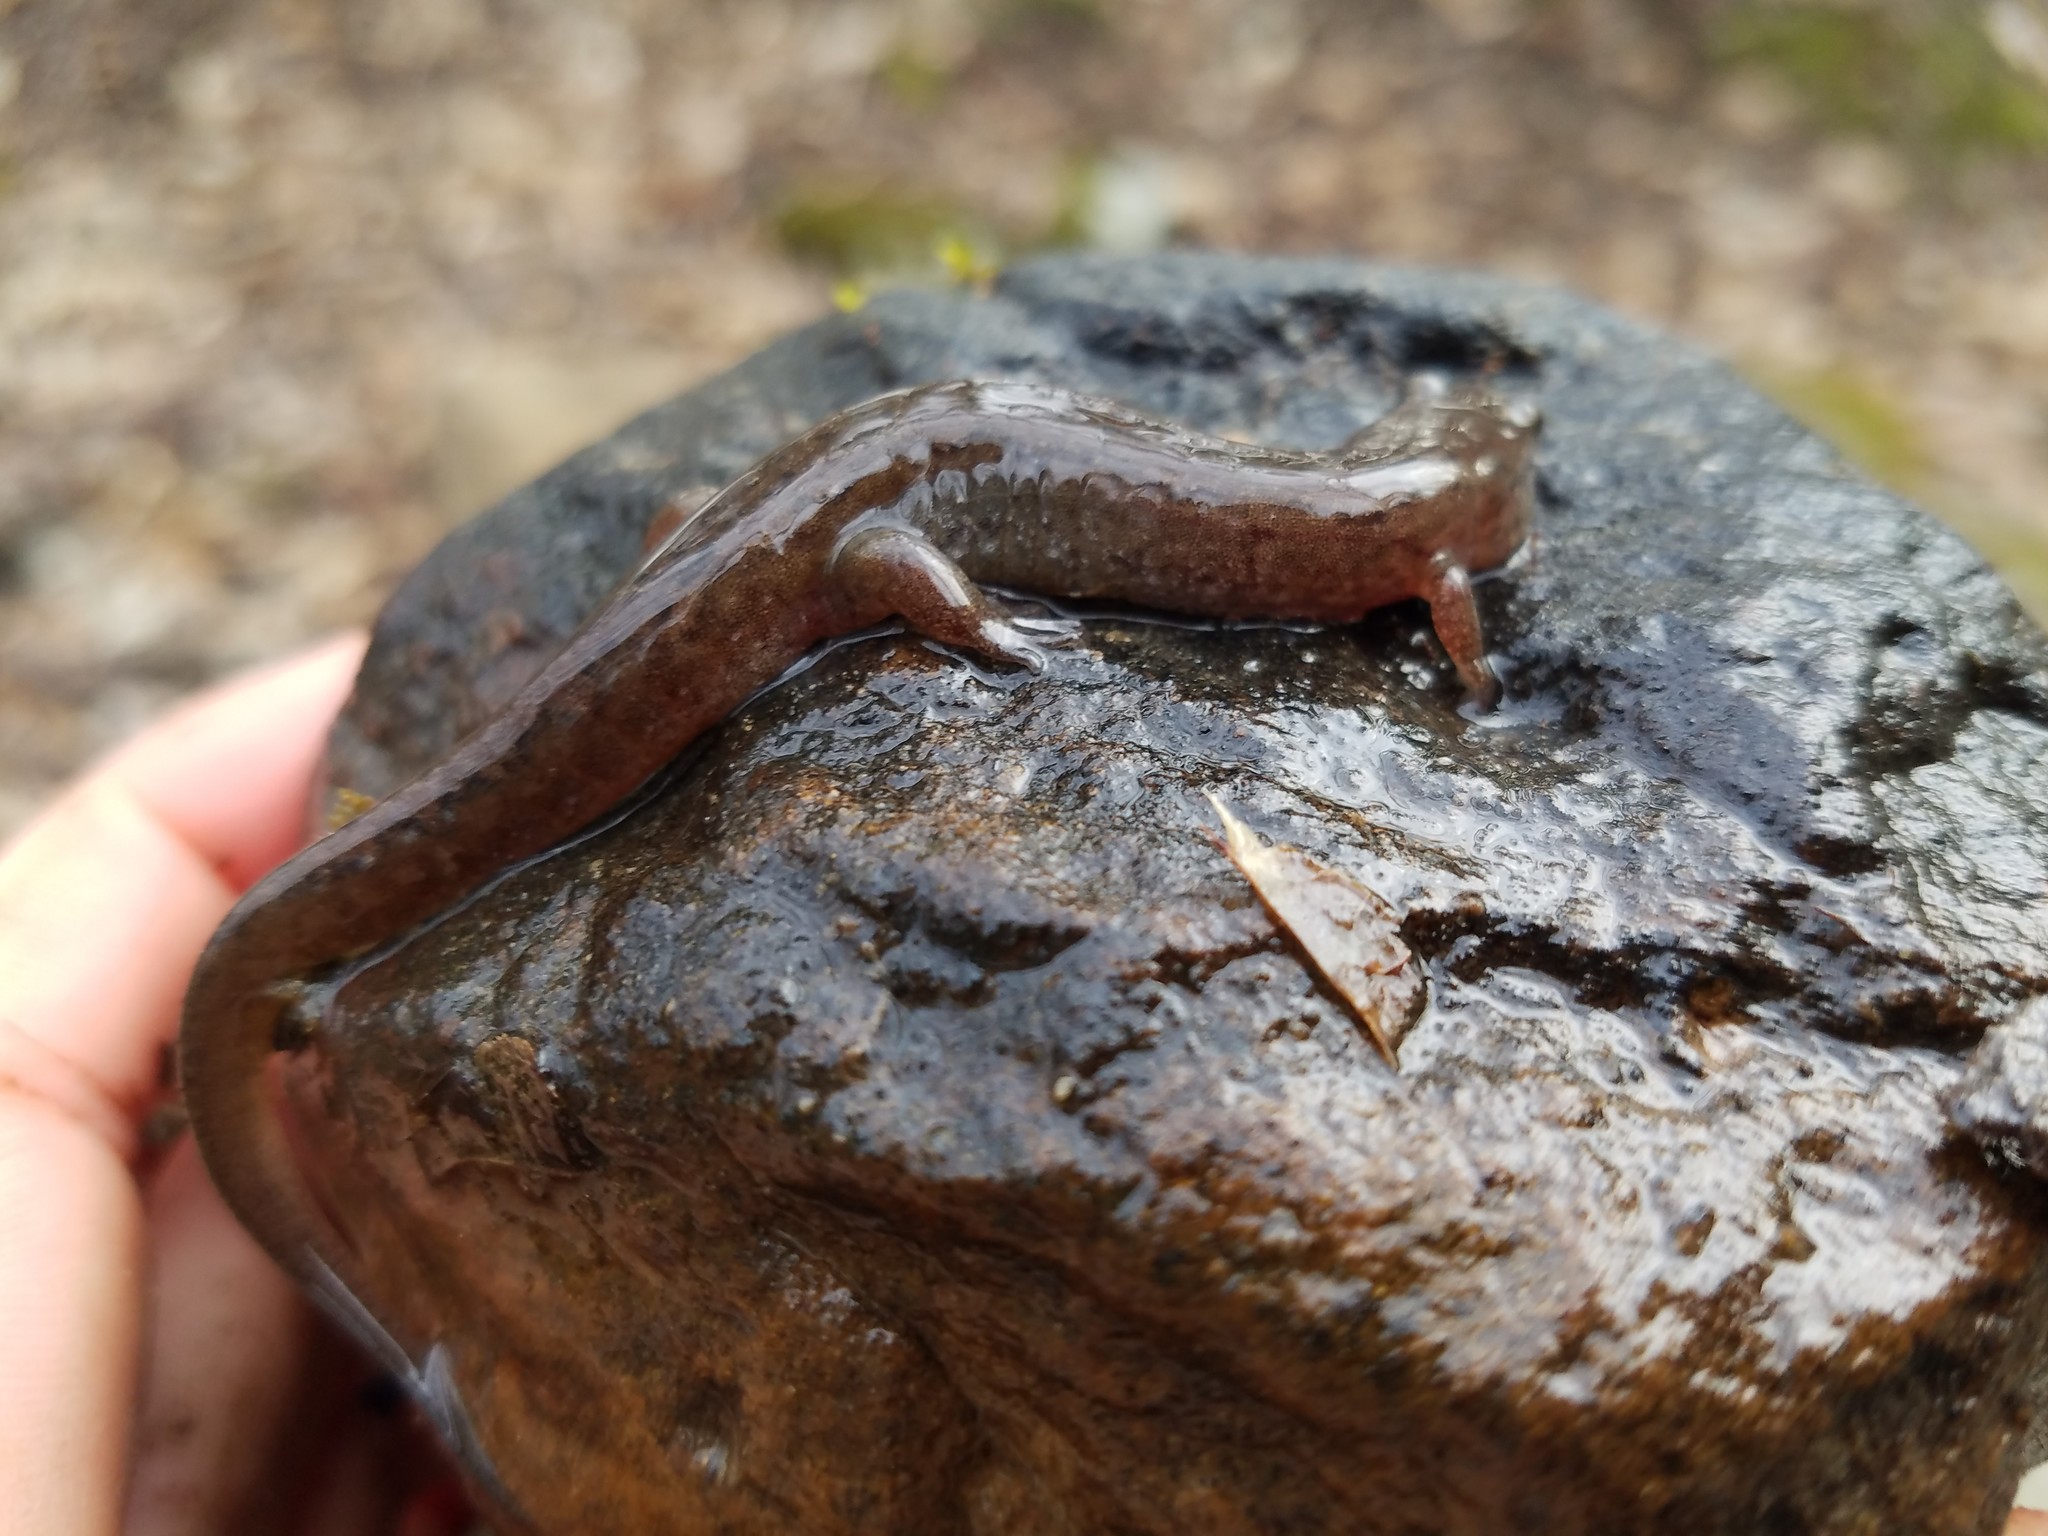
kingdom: Animalia
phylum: Chordata
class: Amphibia
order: Caudata
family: Plethodontidae
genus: Desmognathus
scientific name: Desmognathus fuscus
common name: Northern dusky salamander
